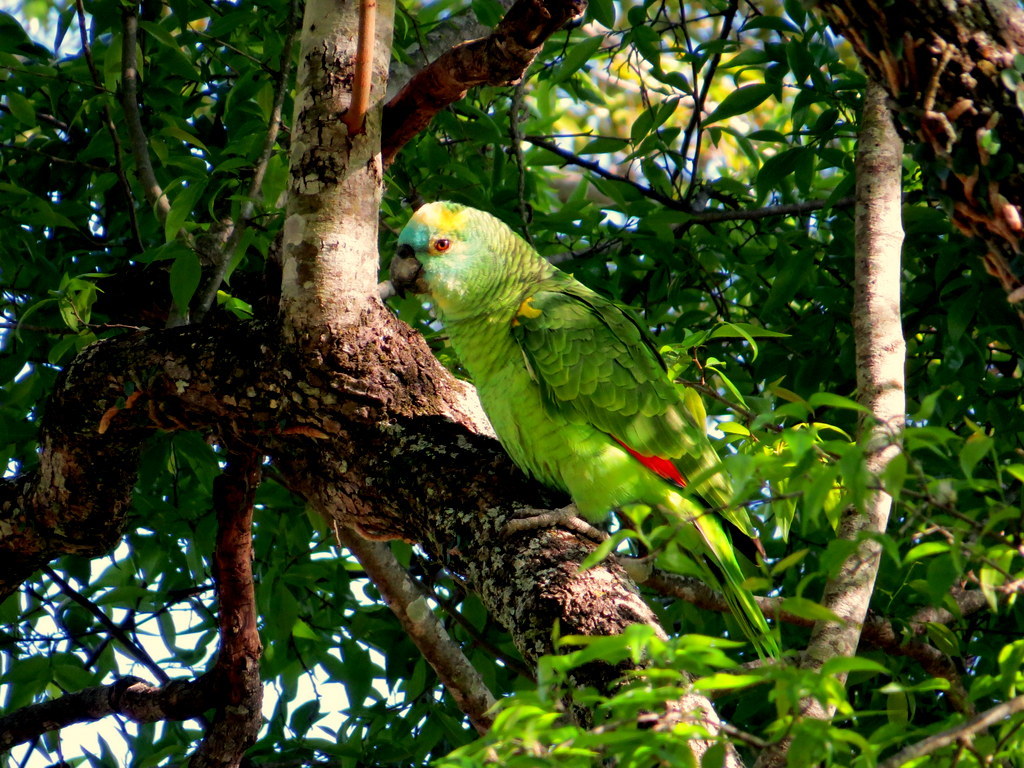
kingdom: Animalia
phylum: Chordata
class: Aves
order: Psittaciformes
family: Psittacidae
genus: Amazona
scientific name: Amazona aestiva
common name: Turquoise-fronted amazon
